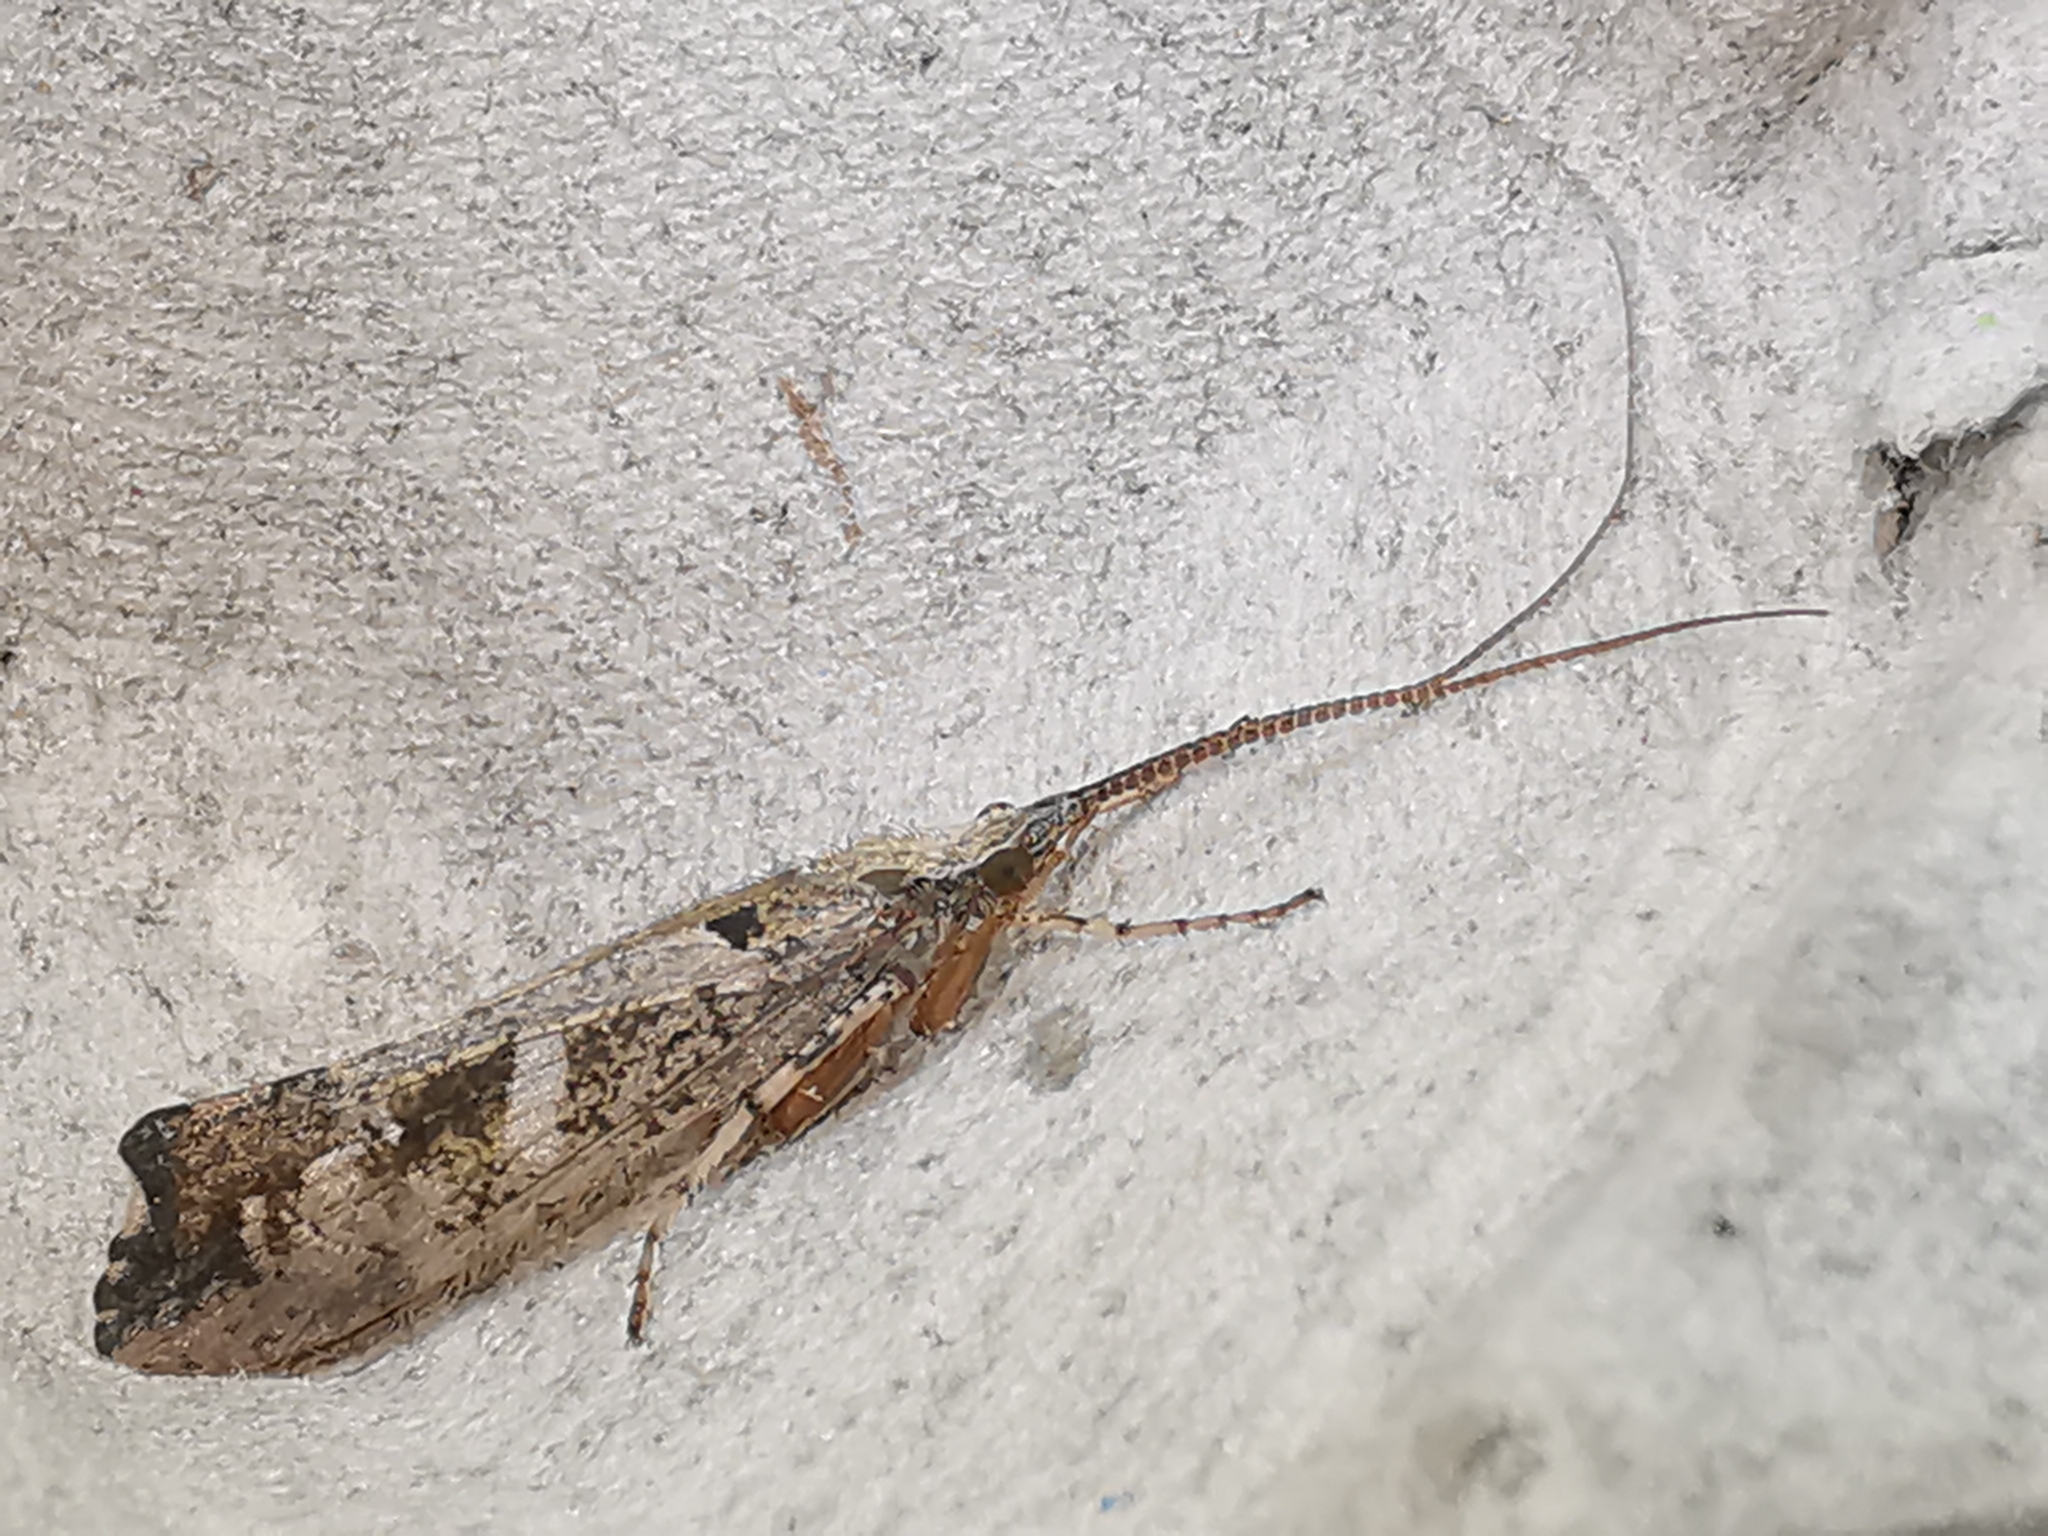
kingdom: Animalia
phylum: Arthropoda
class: Insecta
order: Trichoptera
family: Limnephilidae
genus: Glyphotaelius
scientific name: Glyphotaelius pellucidus
